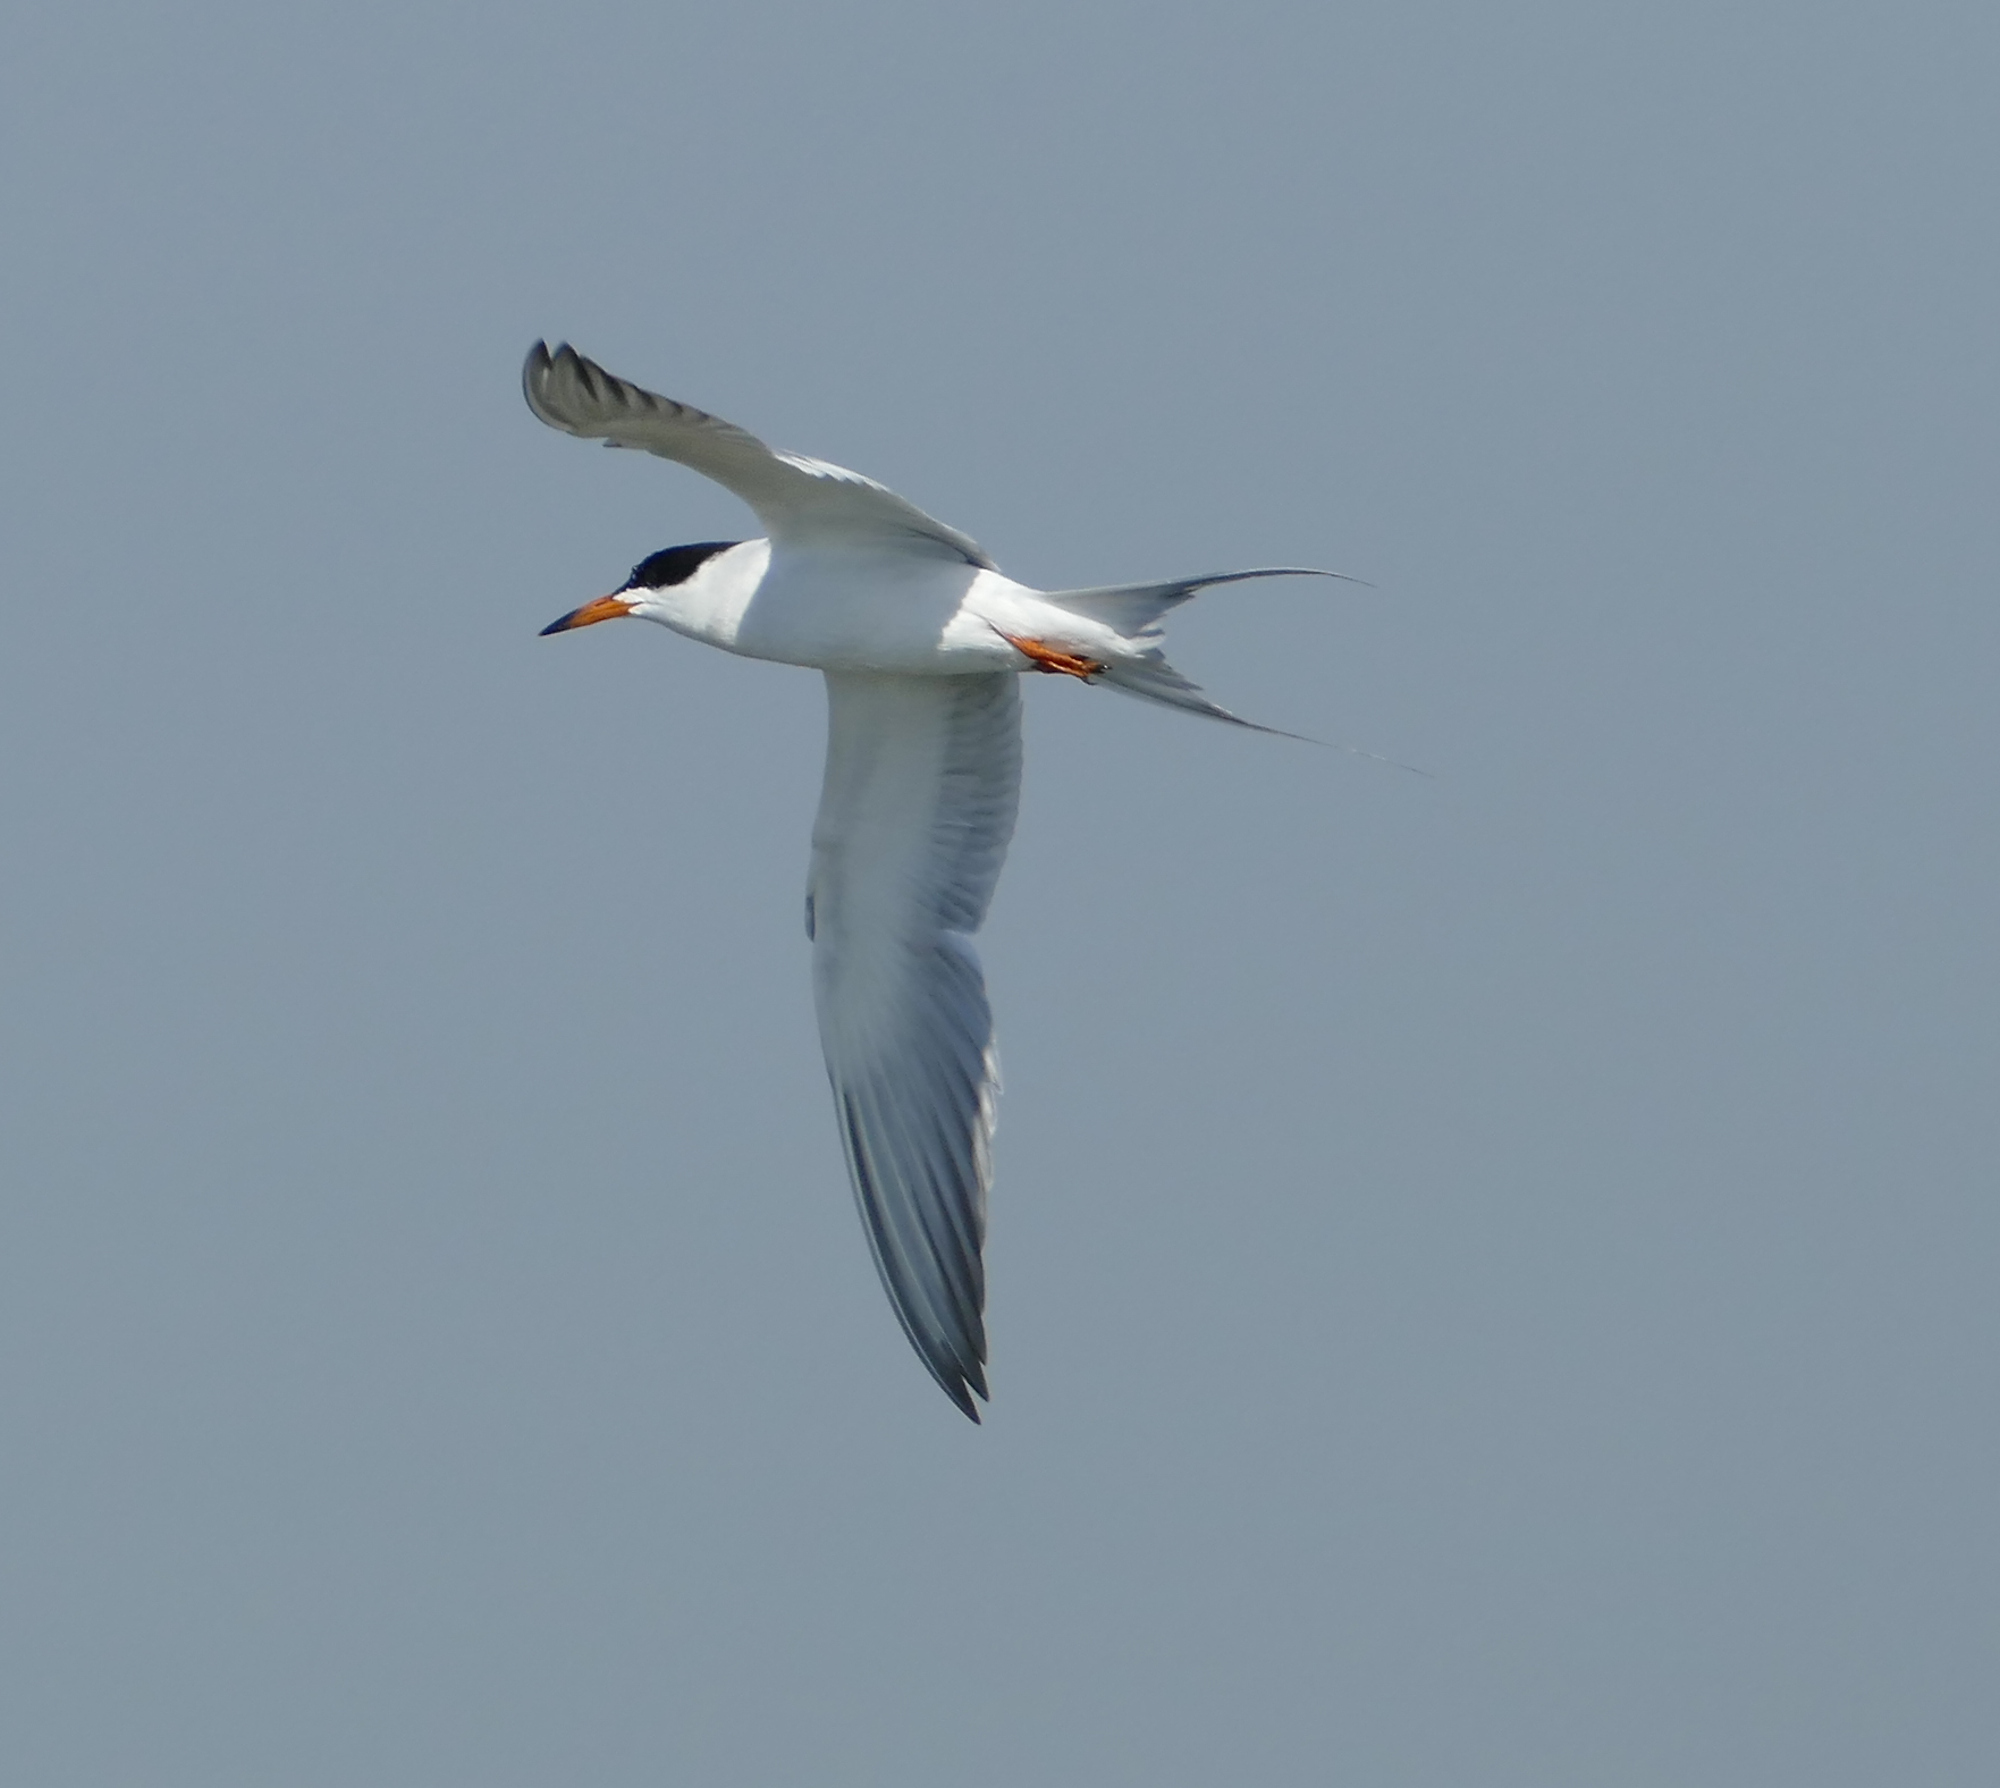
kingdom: Animalia
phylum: Chordata
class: Aves
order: Charadriiformes
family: Laridae
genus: Sterna
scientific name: Sterna forsteri
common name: Forster's tern
